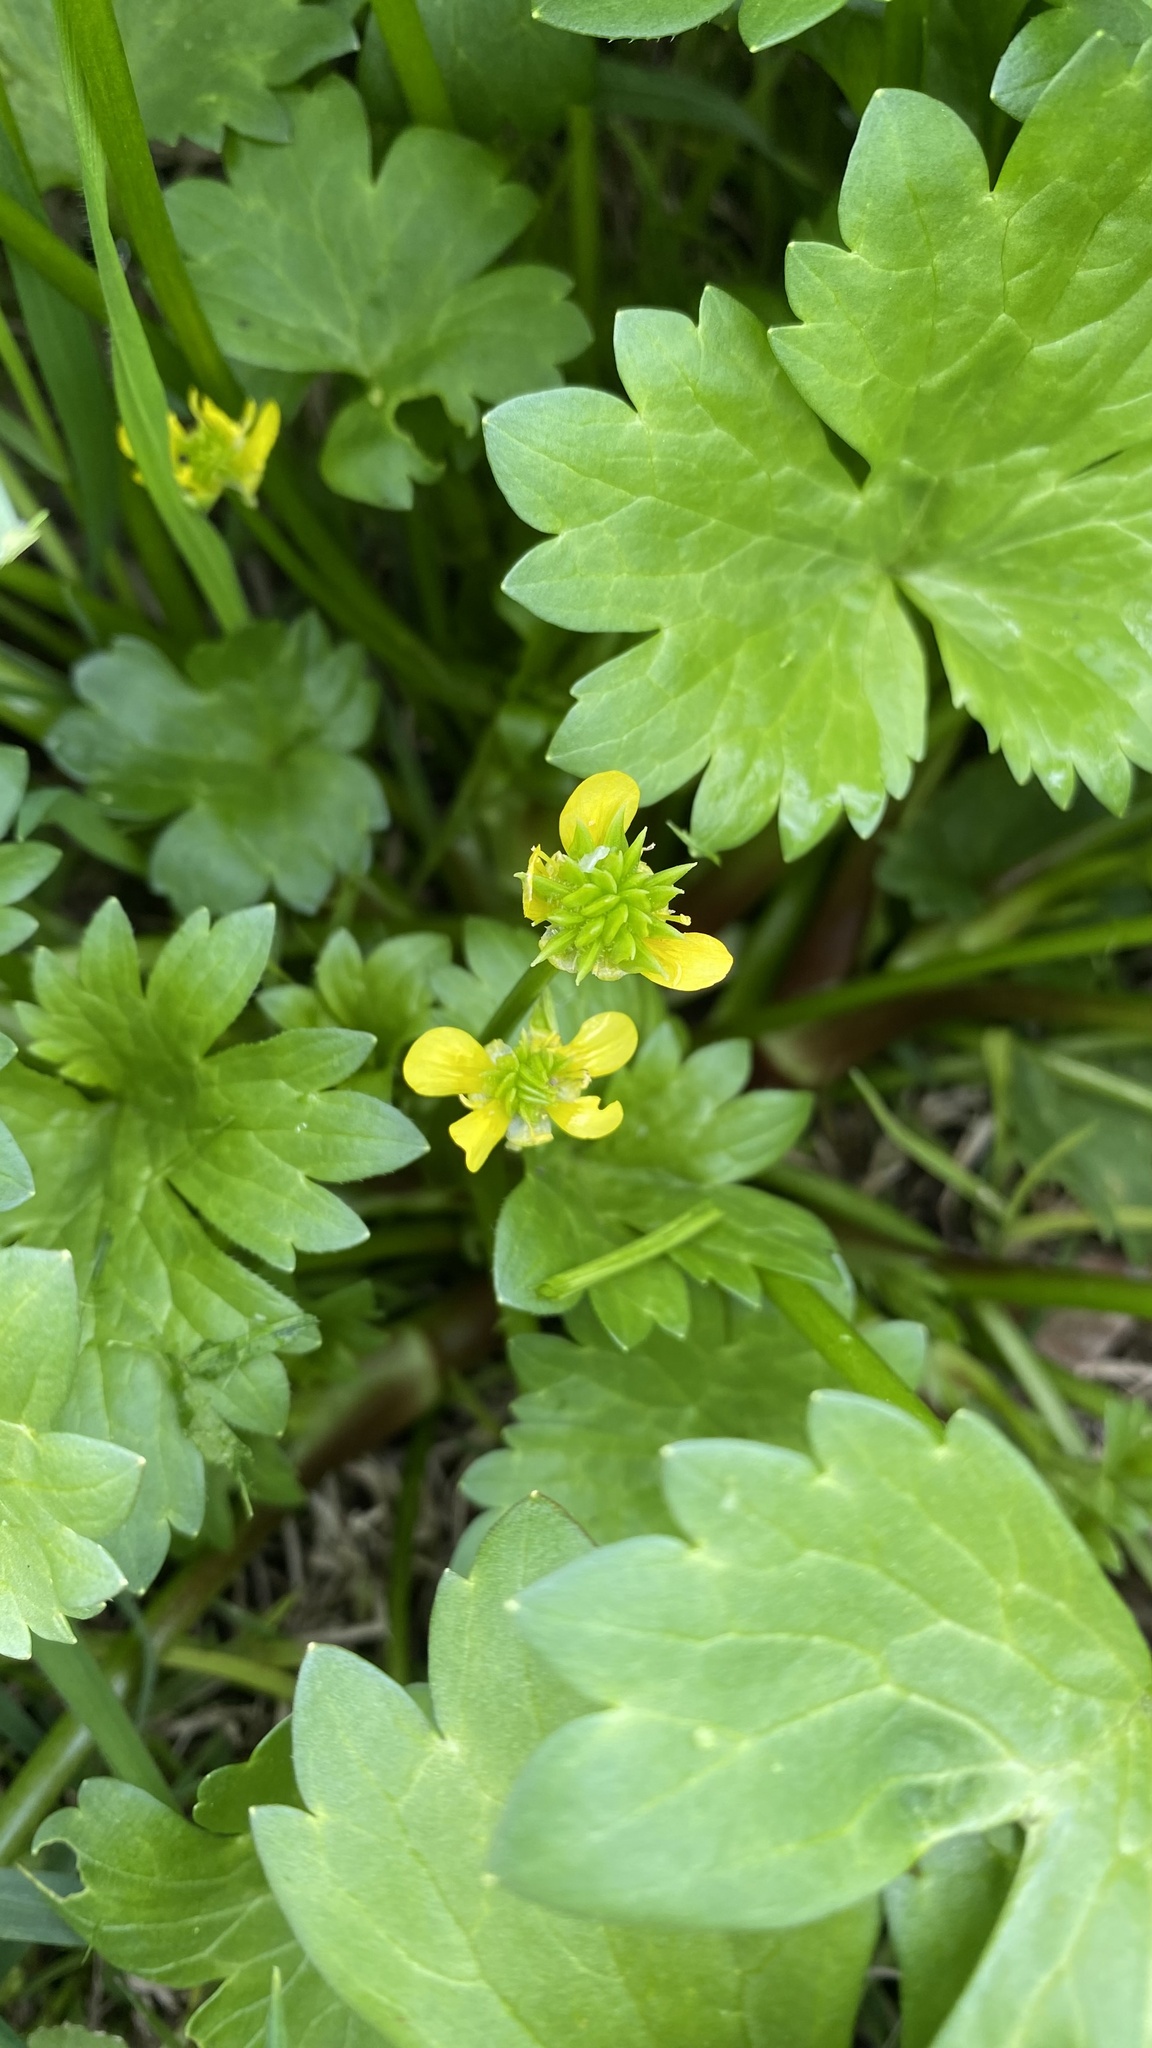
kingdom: Plantae
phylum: Tracheophyta
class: Magnoliopsida
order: Ranunculales
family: Ranunculaceae
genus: Ranunculus
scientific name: Ranunculus muricatus
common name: Rough-fruited buttercup
